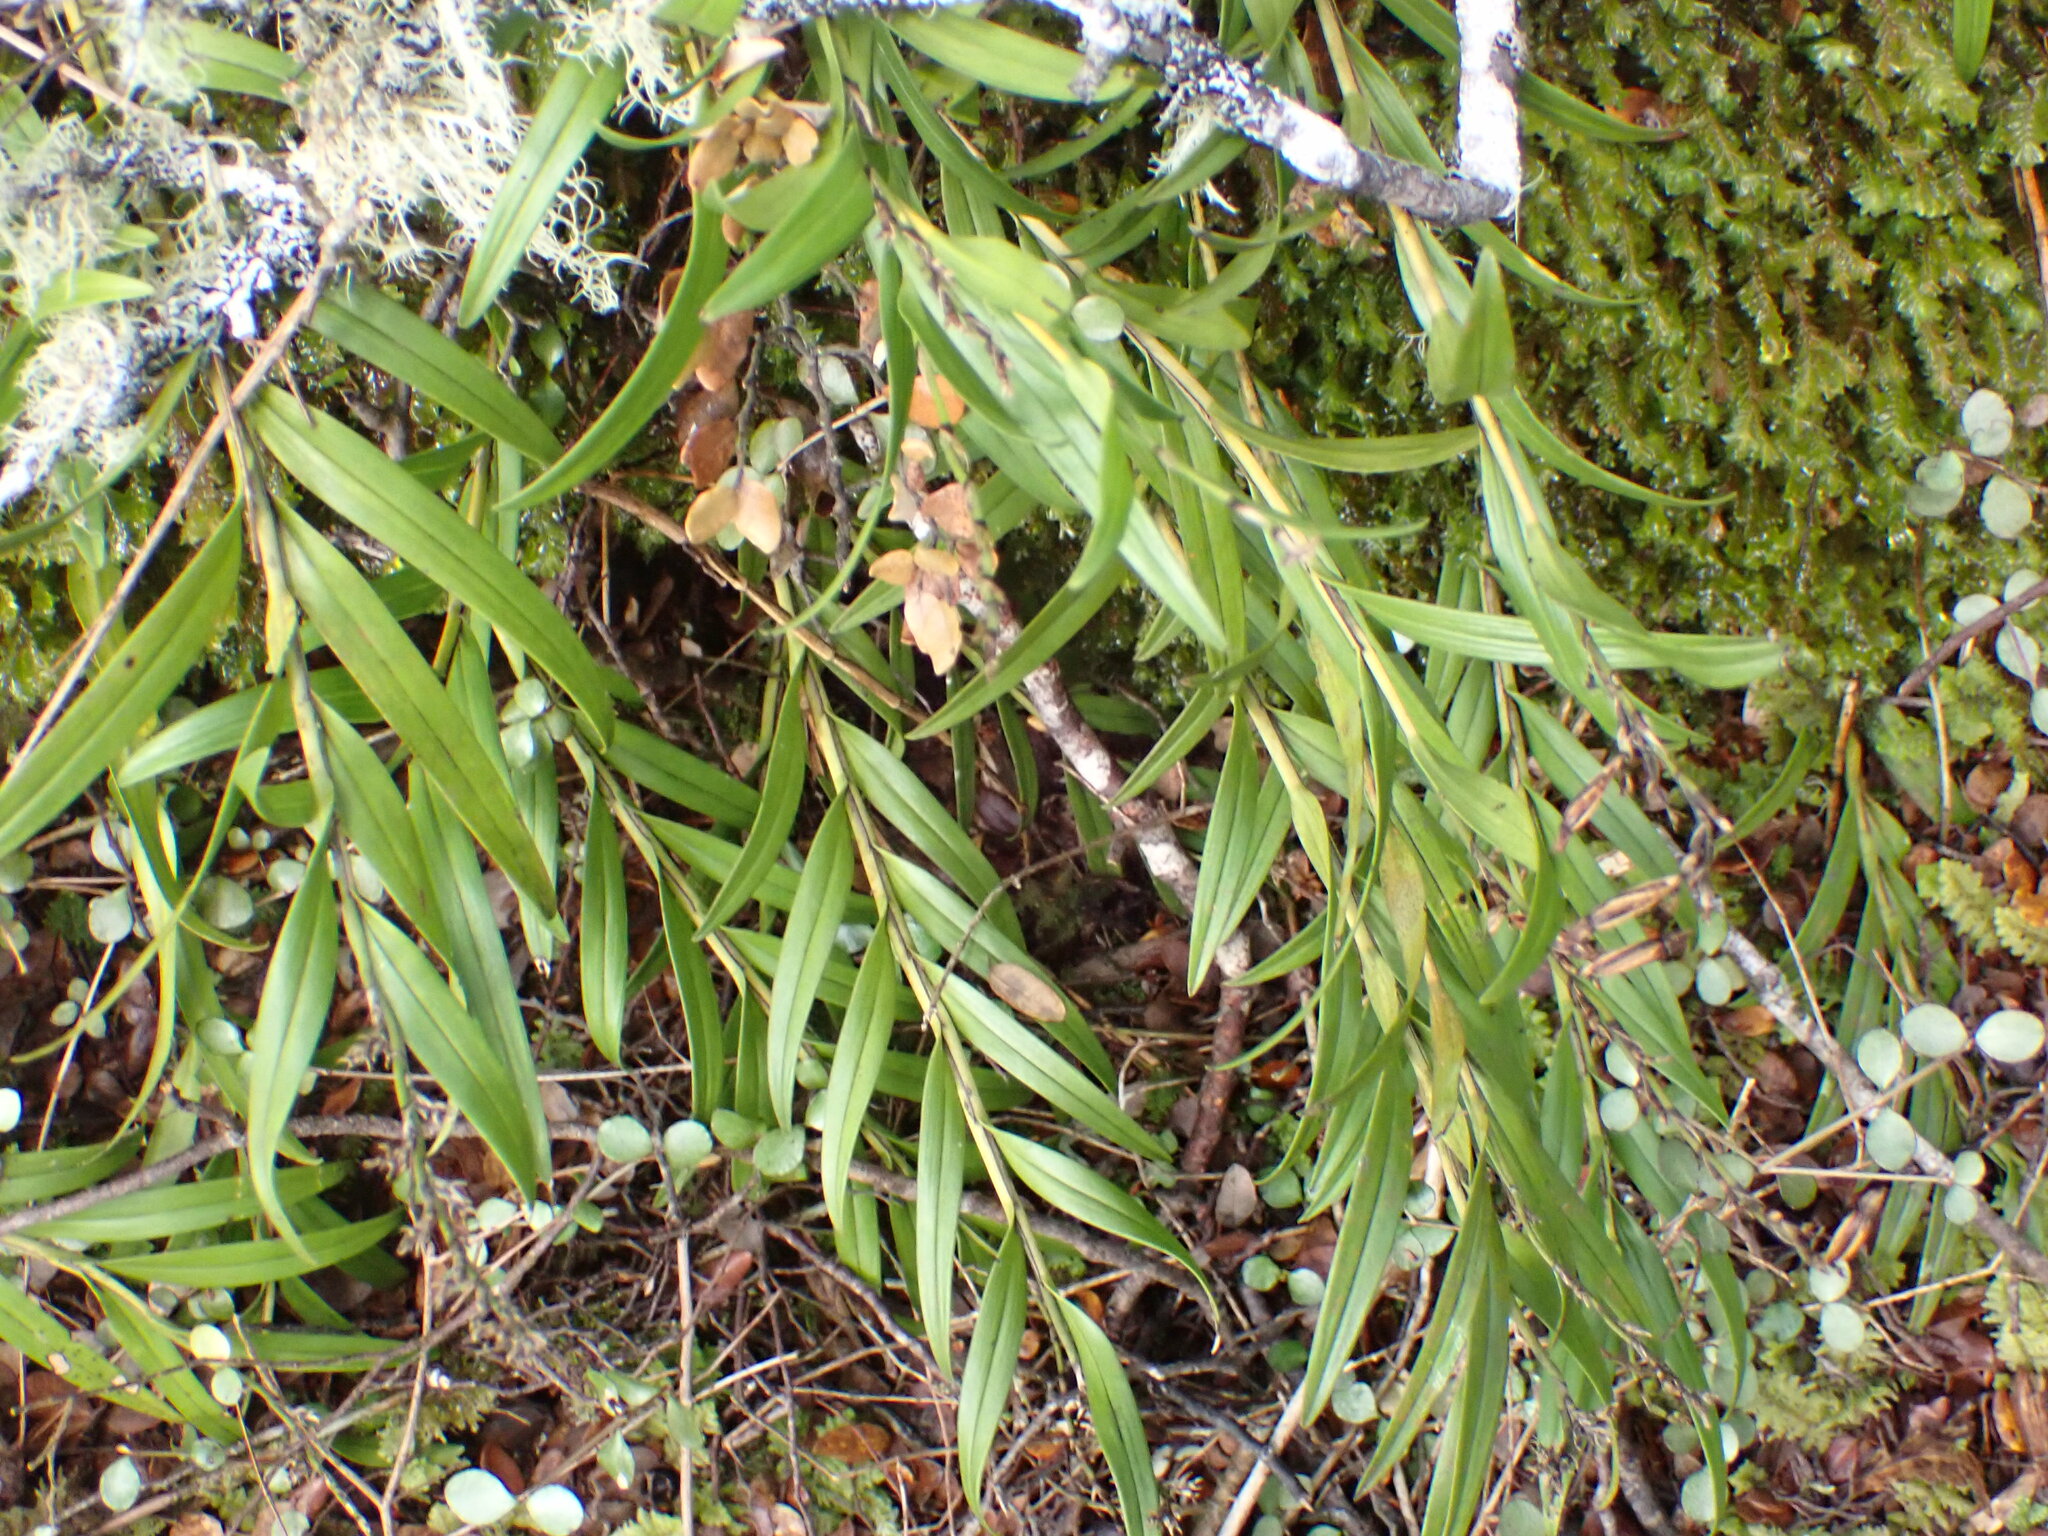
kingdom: Plantae
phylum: Tracheophyta
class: Liliopsida
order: Asparagales
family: Orchidaceae
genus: Earina
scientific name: Earina autumnalis
